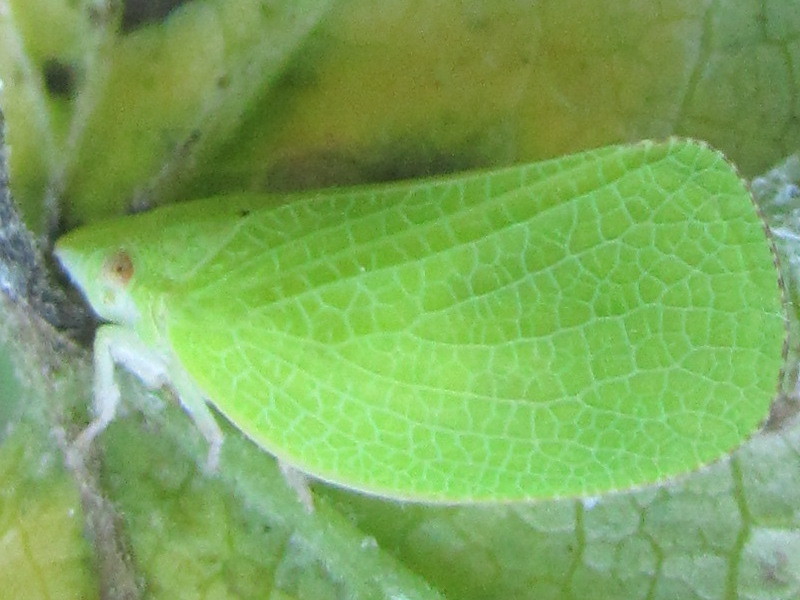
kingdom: Animalia
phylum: Arthropoda
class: Insecta
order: Hemiptera
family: Acanaloniidae
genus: Acanalonia
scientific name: Acanalonia conica
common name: Green cone-headed planthopper
